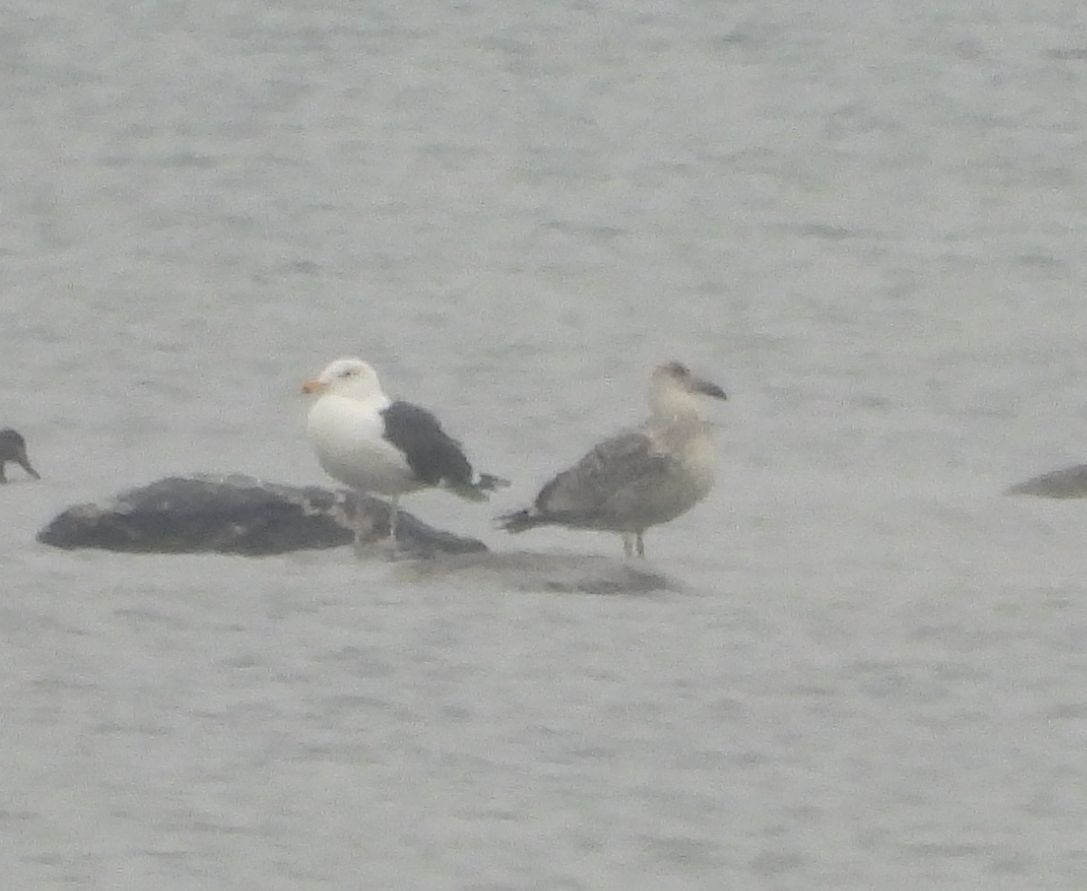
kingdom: Animalia
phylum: Chordata
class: Aves
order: Charadriiformes
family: Laridae
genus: Larus
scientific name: Larus marinus
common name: Great black-backed gull
